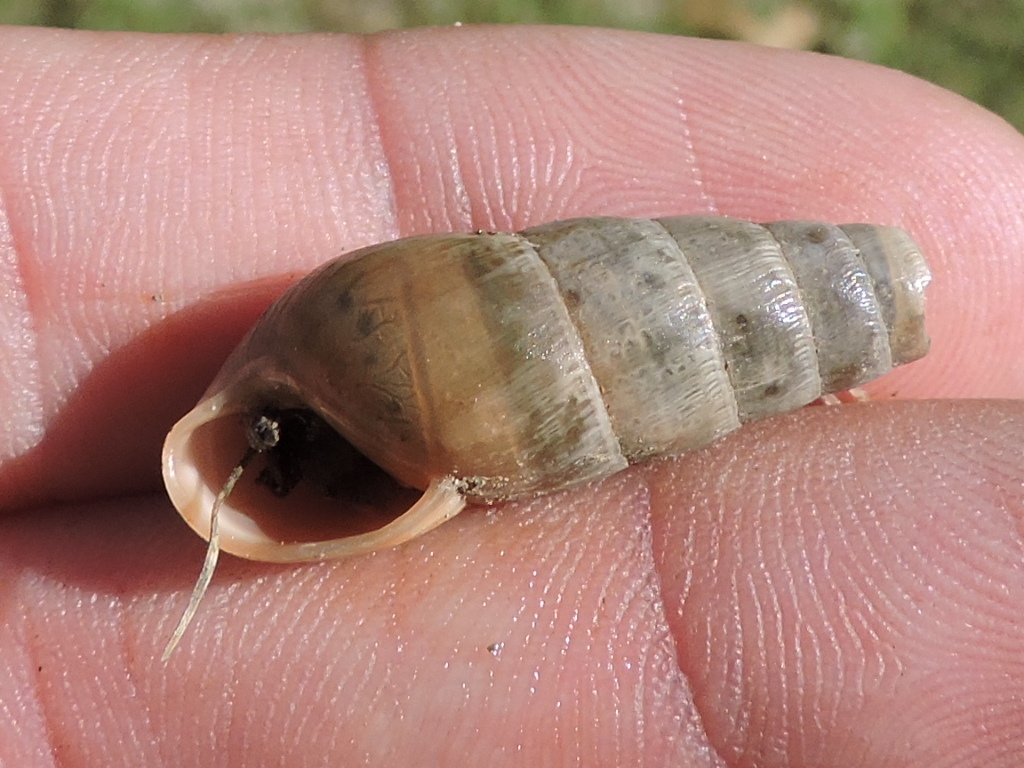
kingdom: Animalia
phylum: Mollusca
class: Gastropoda
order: Stylommatophora
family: Achatinidae
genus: Rumina
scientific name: Rumina decollata
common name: Decollate snail
